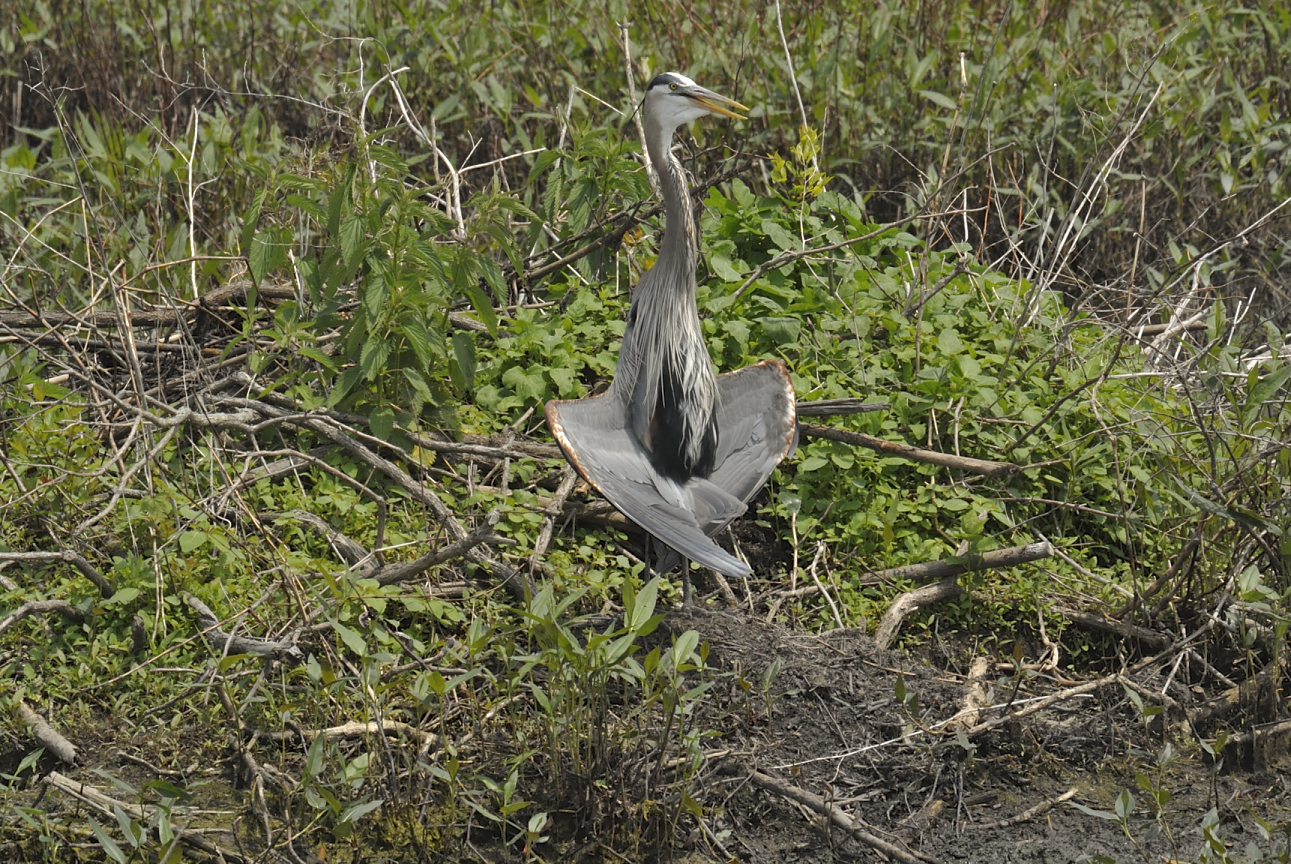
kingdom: Animalia
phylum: Chordata
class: Aves
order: Pelecaniformes
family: Ardeidae
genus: Ardea
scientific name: Ardea herodias
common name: Great blue heron
